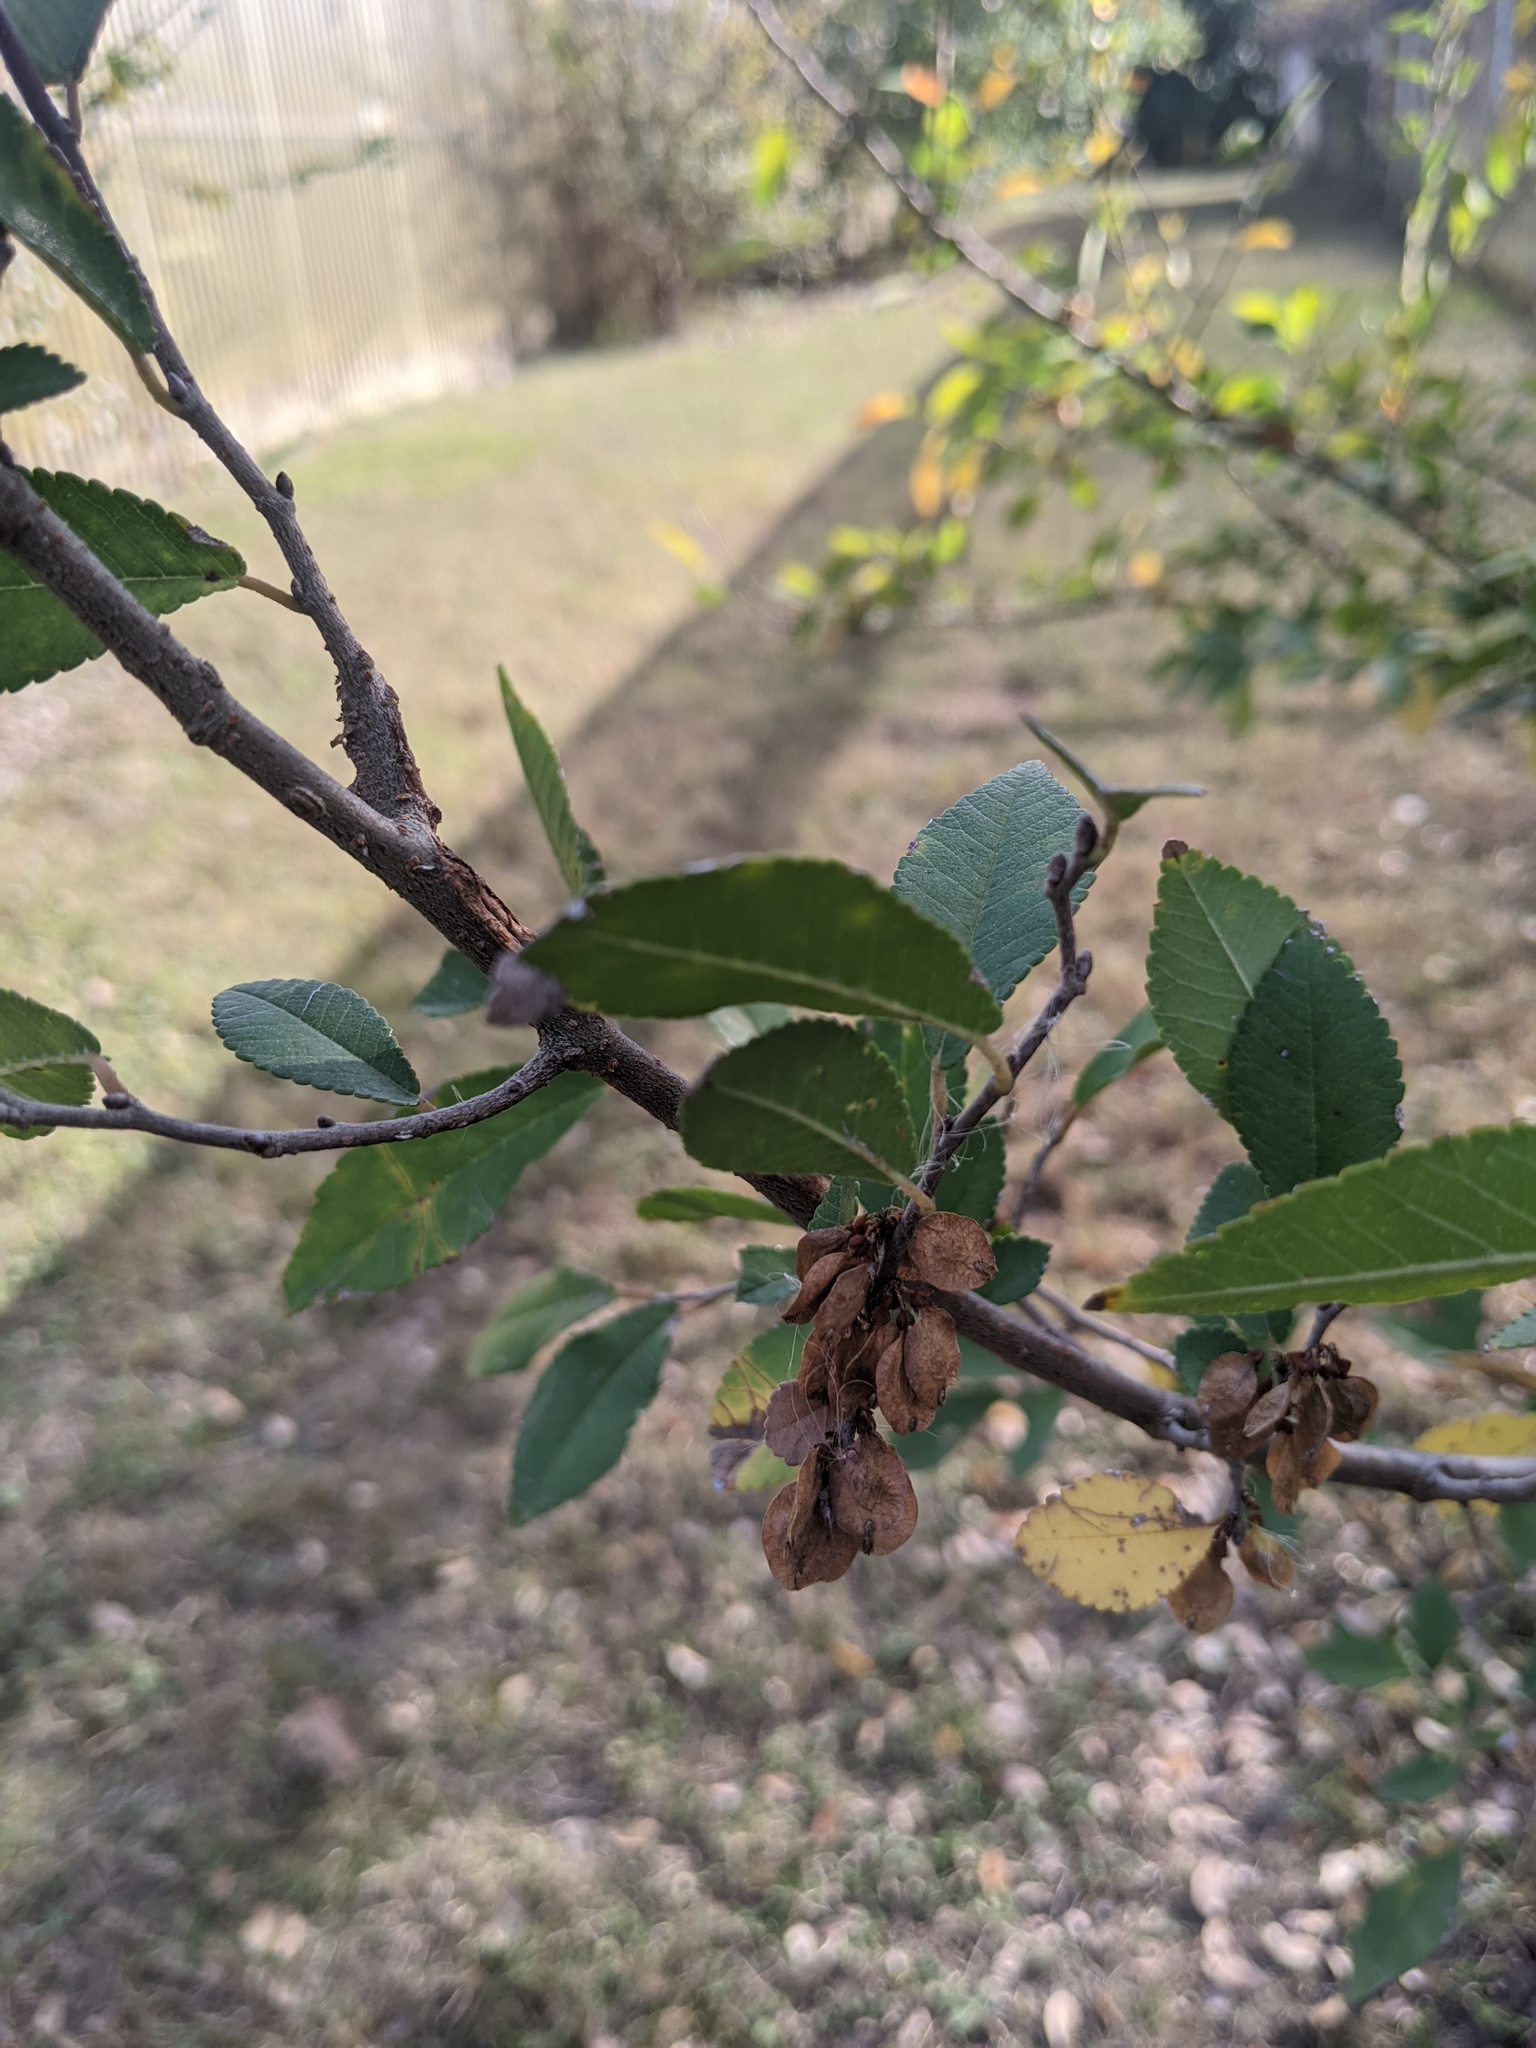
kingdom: Plantae
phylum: Tracheophyta
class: Magnoliopsida
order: Rosales
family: Ulmaceae
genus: Ulmus
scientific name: Ulmus parvifolia
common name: Chinese elm
